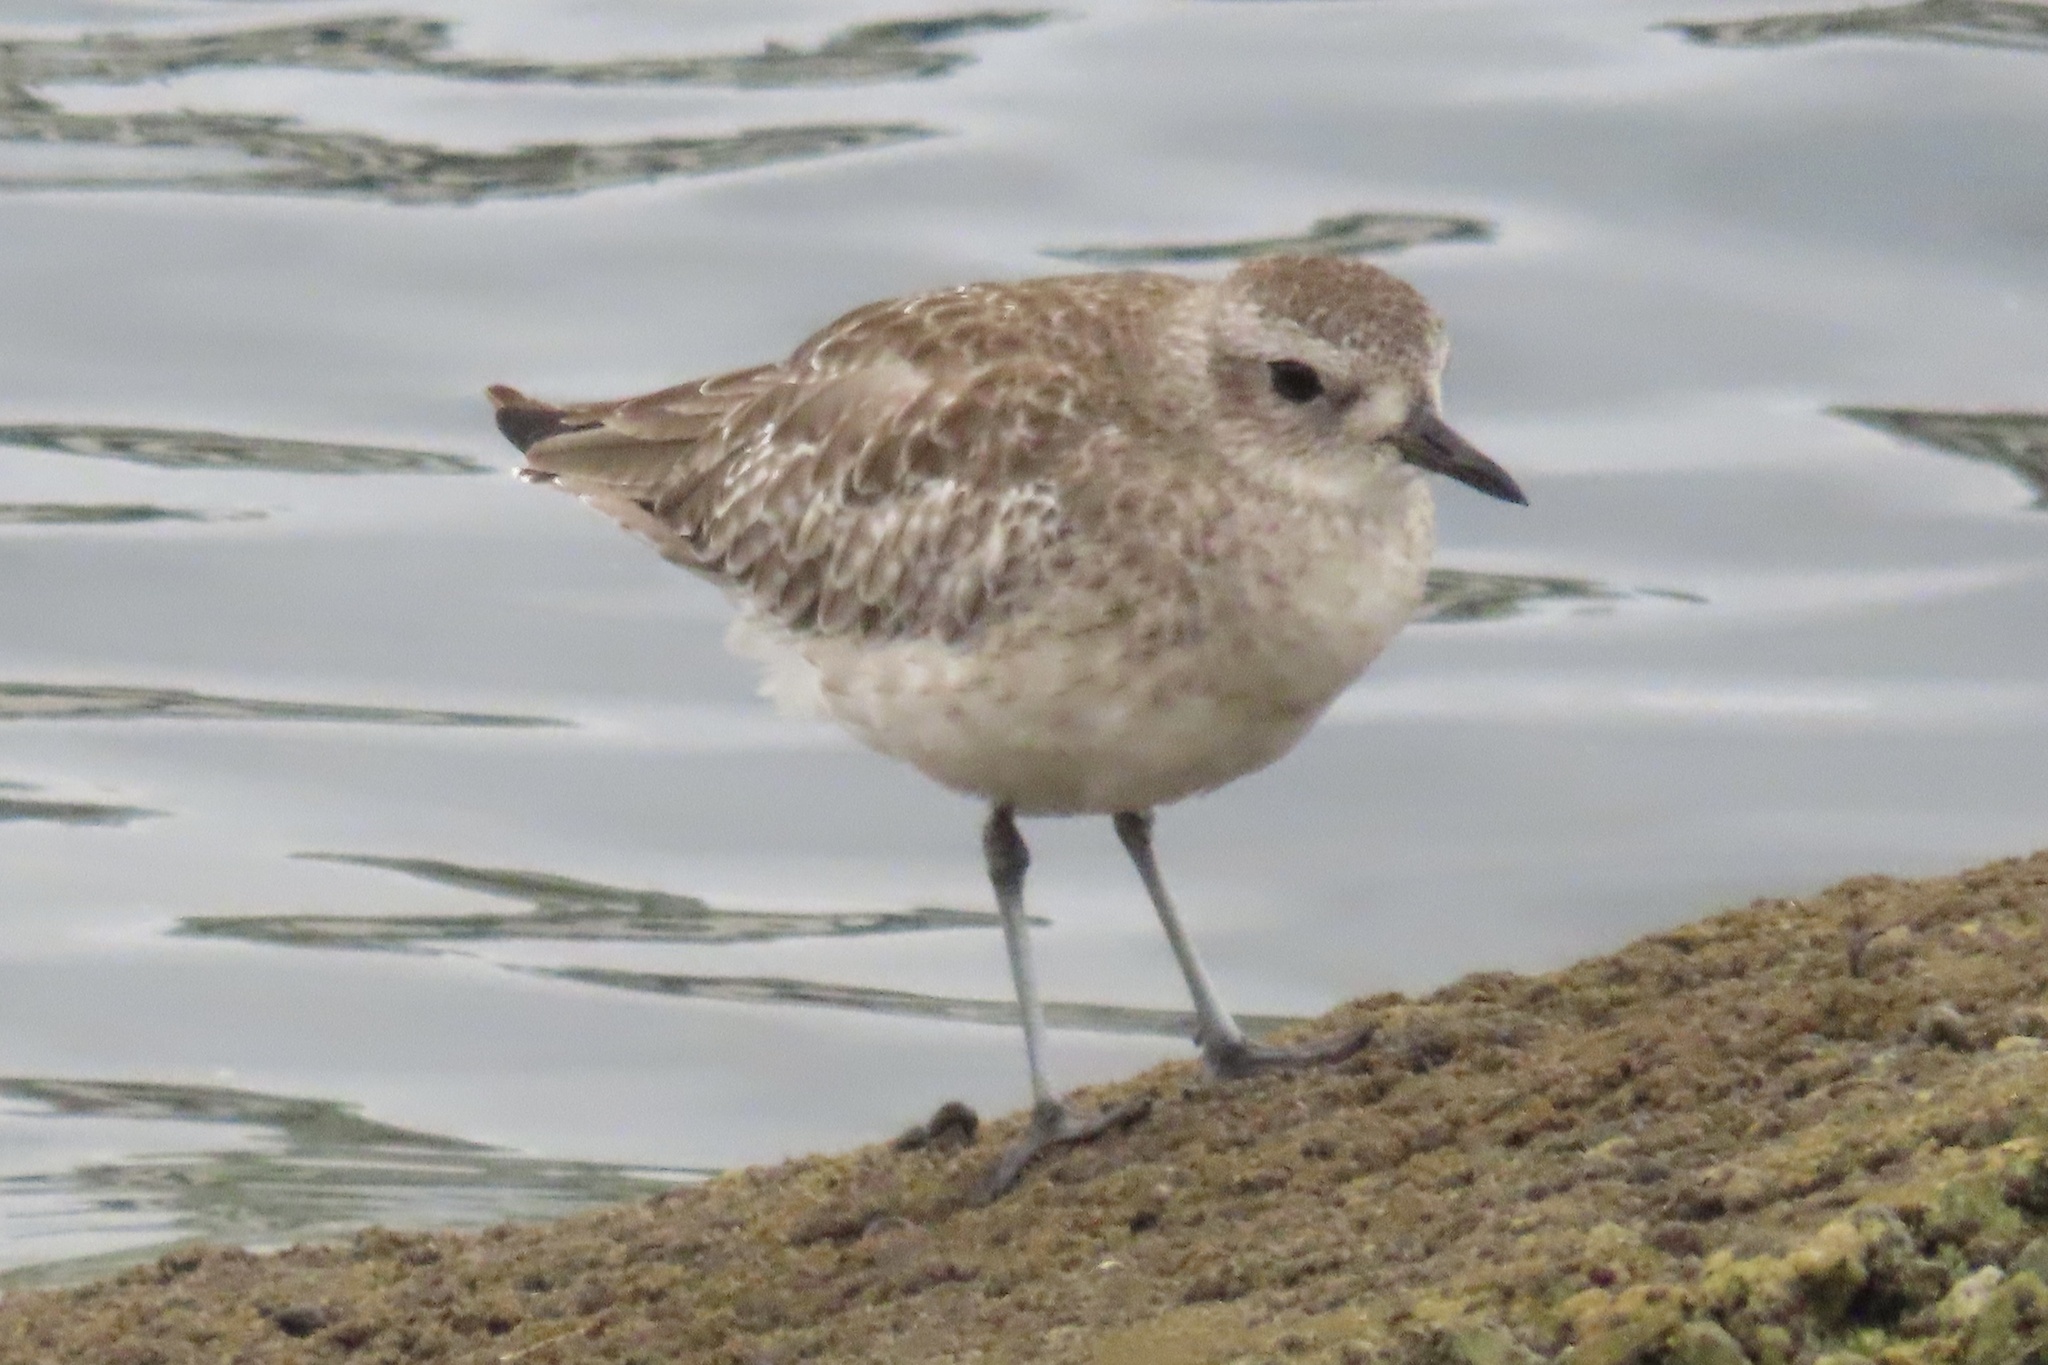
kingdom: Animalia
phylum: Chordata
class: Aves
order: Charadriiformes
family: Charadriidae
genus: Pluvialis
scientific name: Pluvialis squatarola
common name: Grey plover
